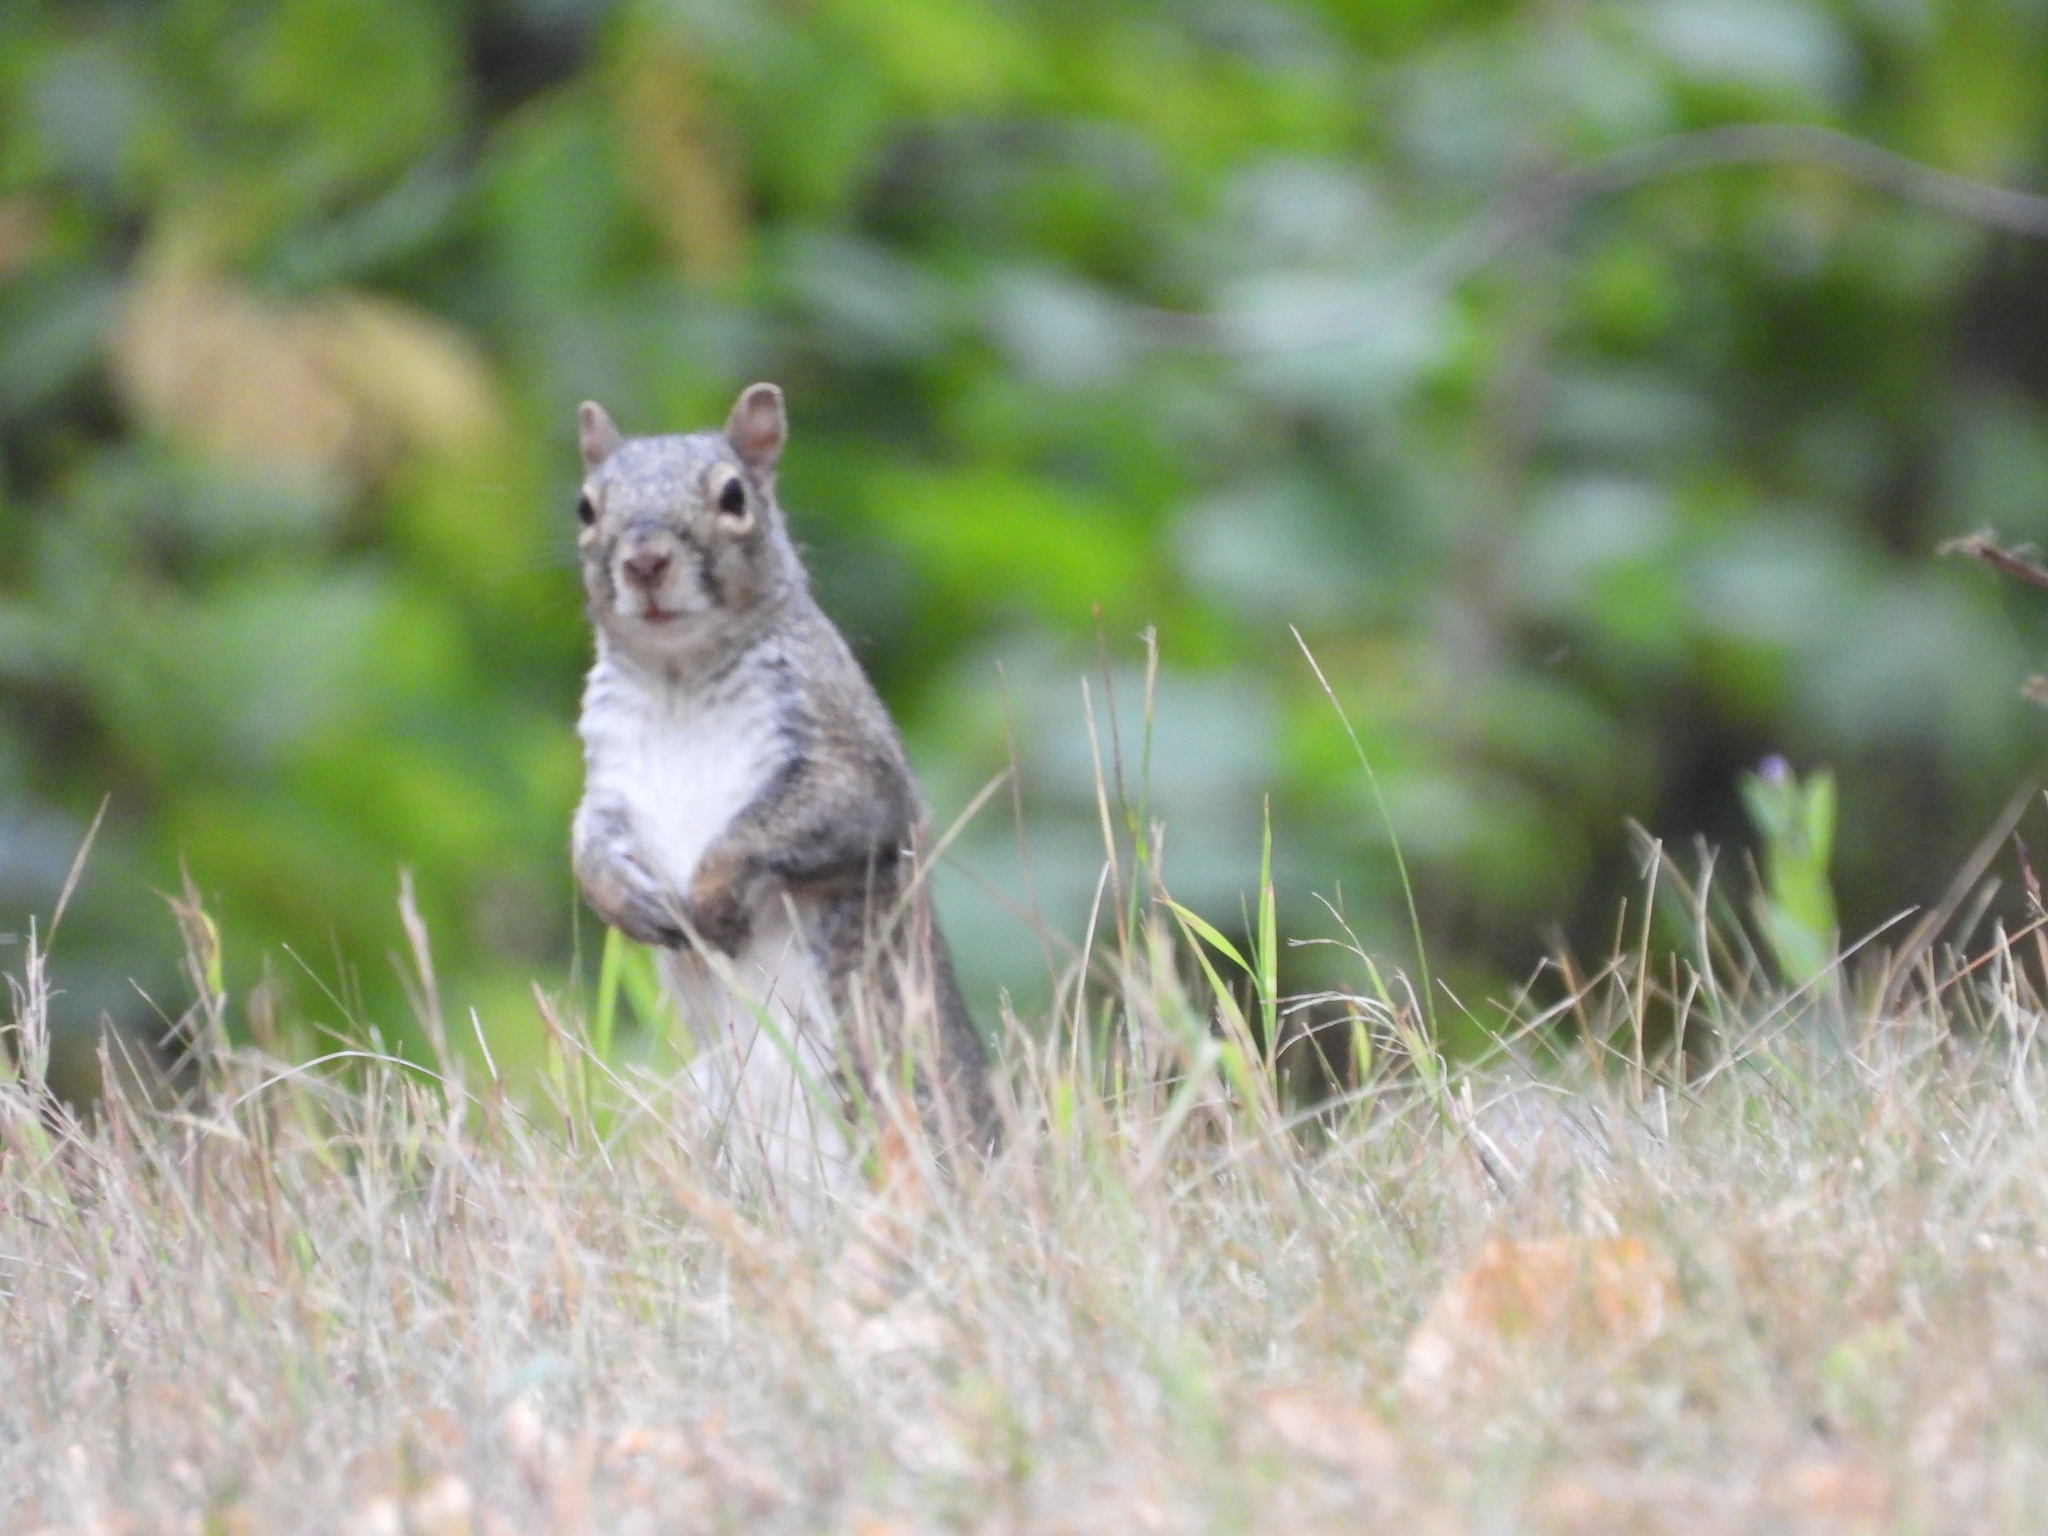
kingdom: Animalia
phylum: Chordata
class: Mammalia
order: Rodentia
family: Sciuridae
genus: Sciurus
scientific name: Sciurus carolinensis
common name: Eastern gray squirrel
